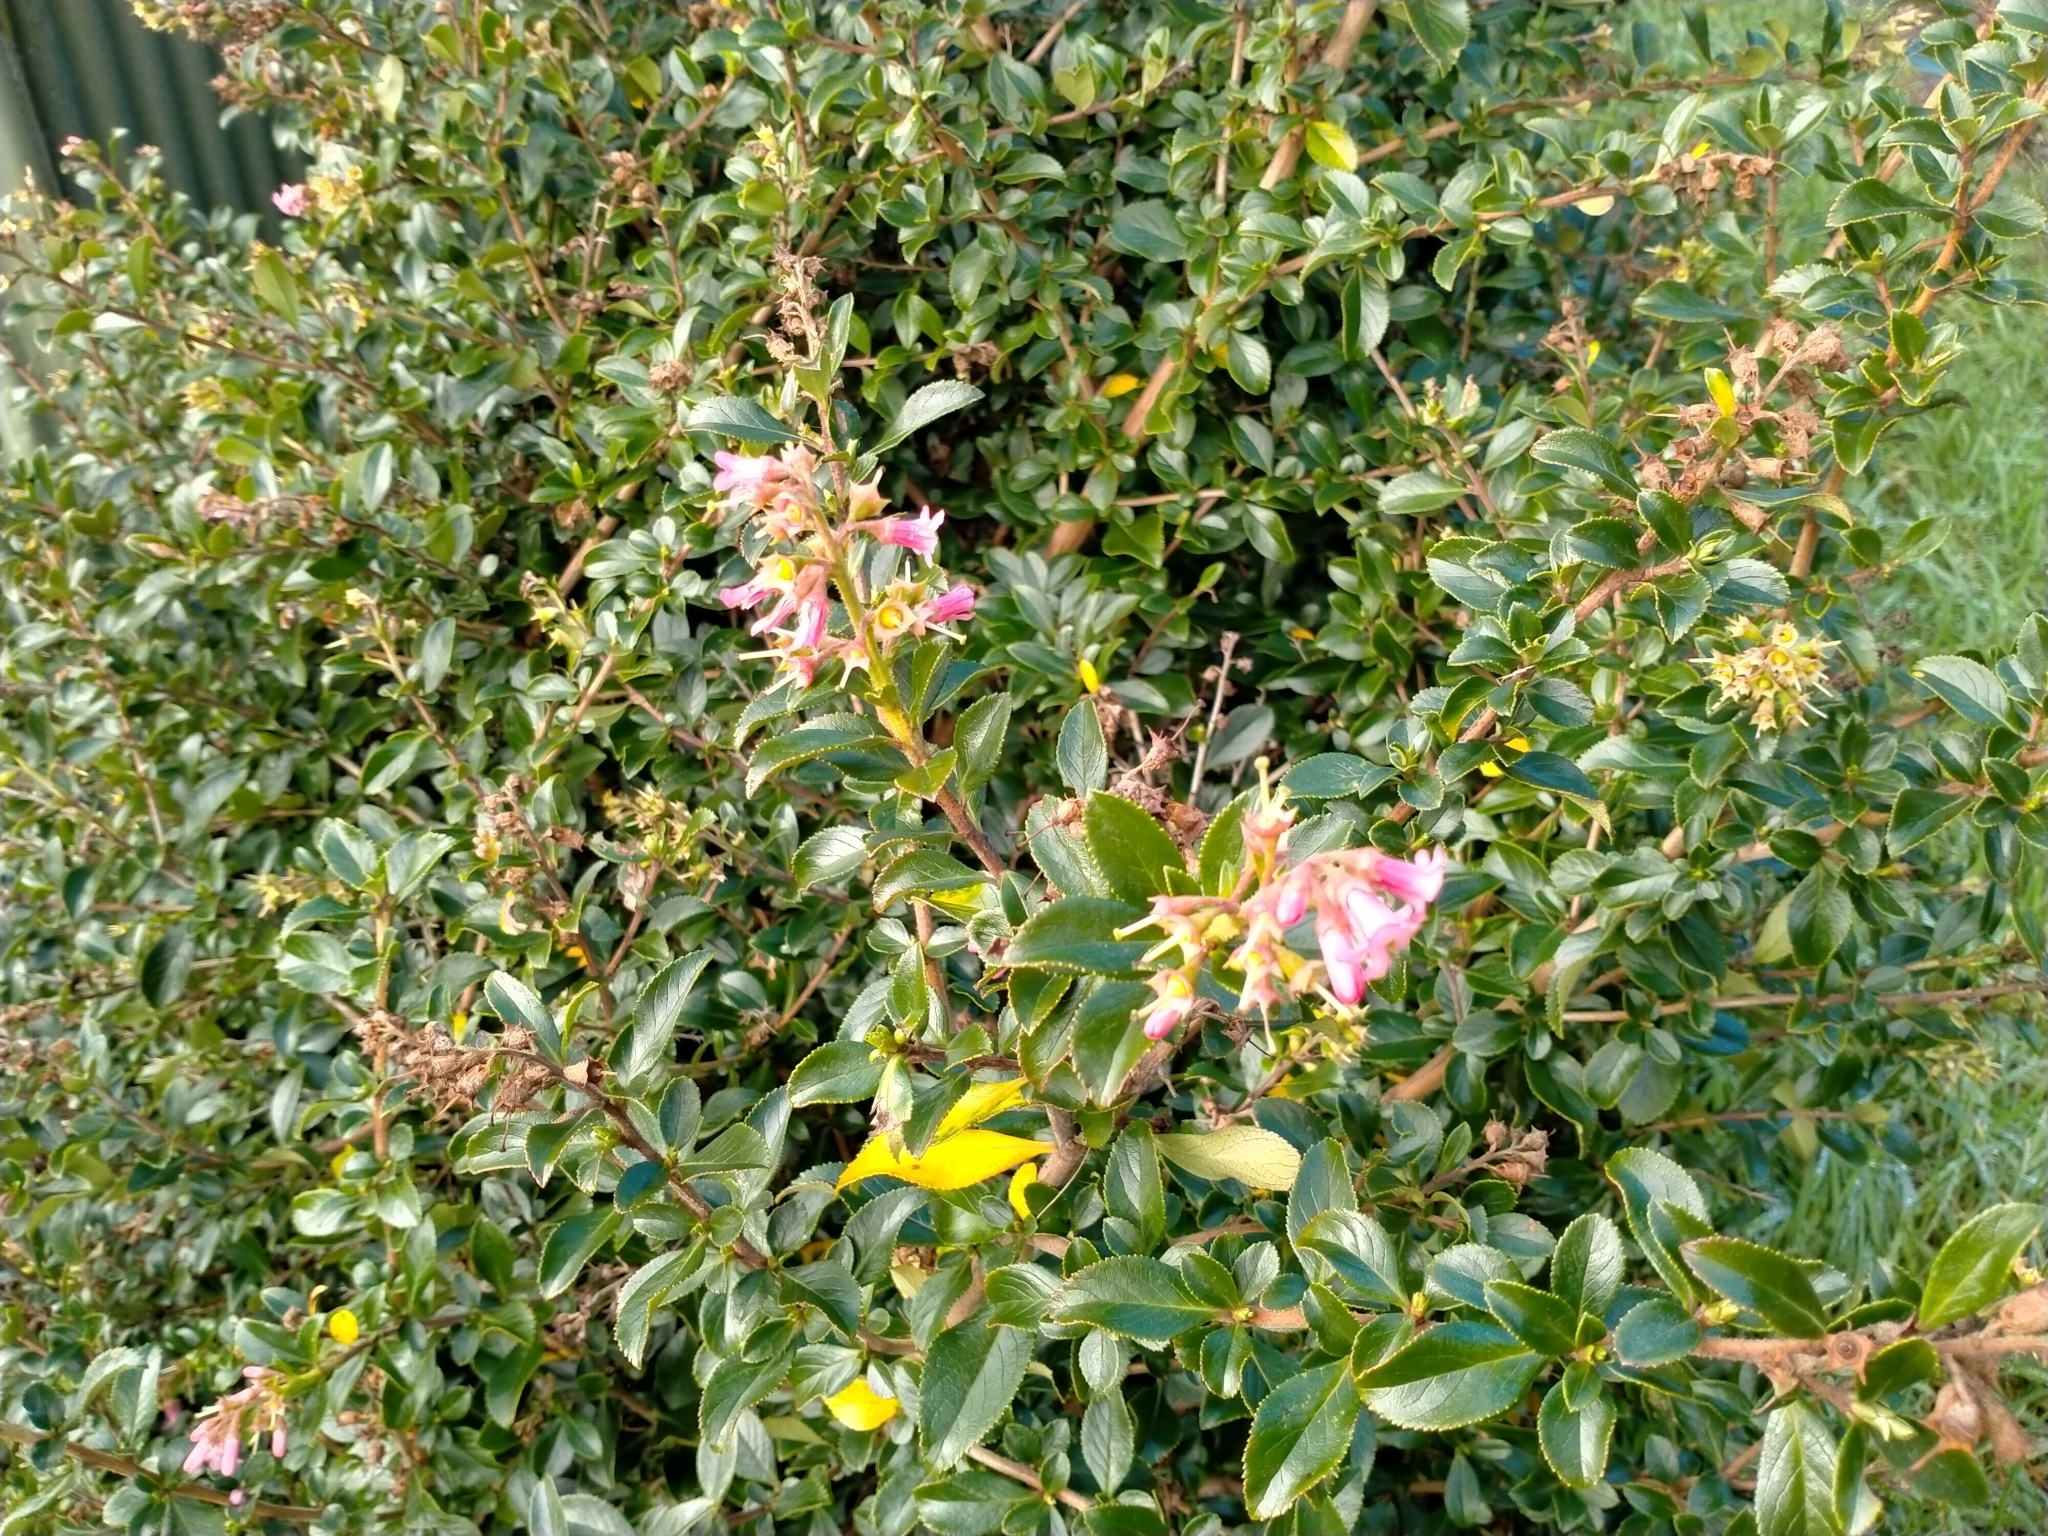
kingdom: Plantae
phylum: Tracheophyta
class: Magnoliopsida
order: Escalloniales
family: Escalloniaceae
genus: Escallonia
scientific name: Escallonia rubra
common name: Redclaws
